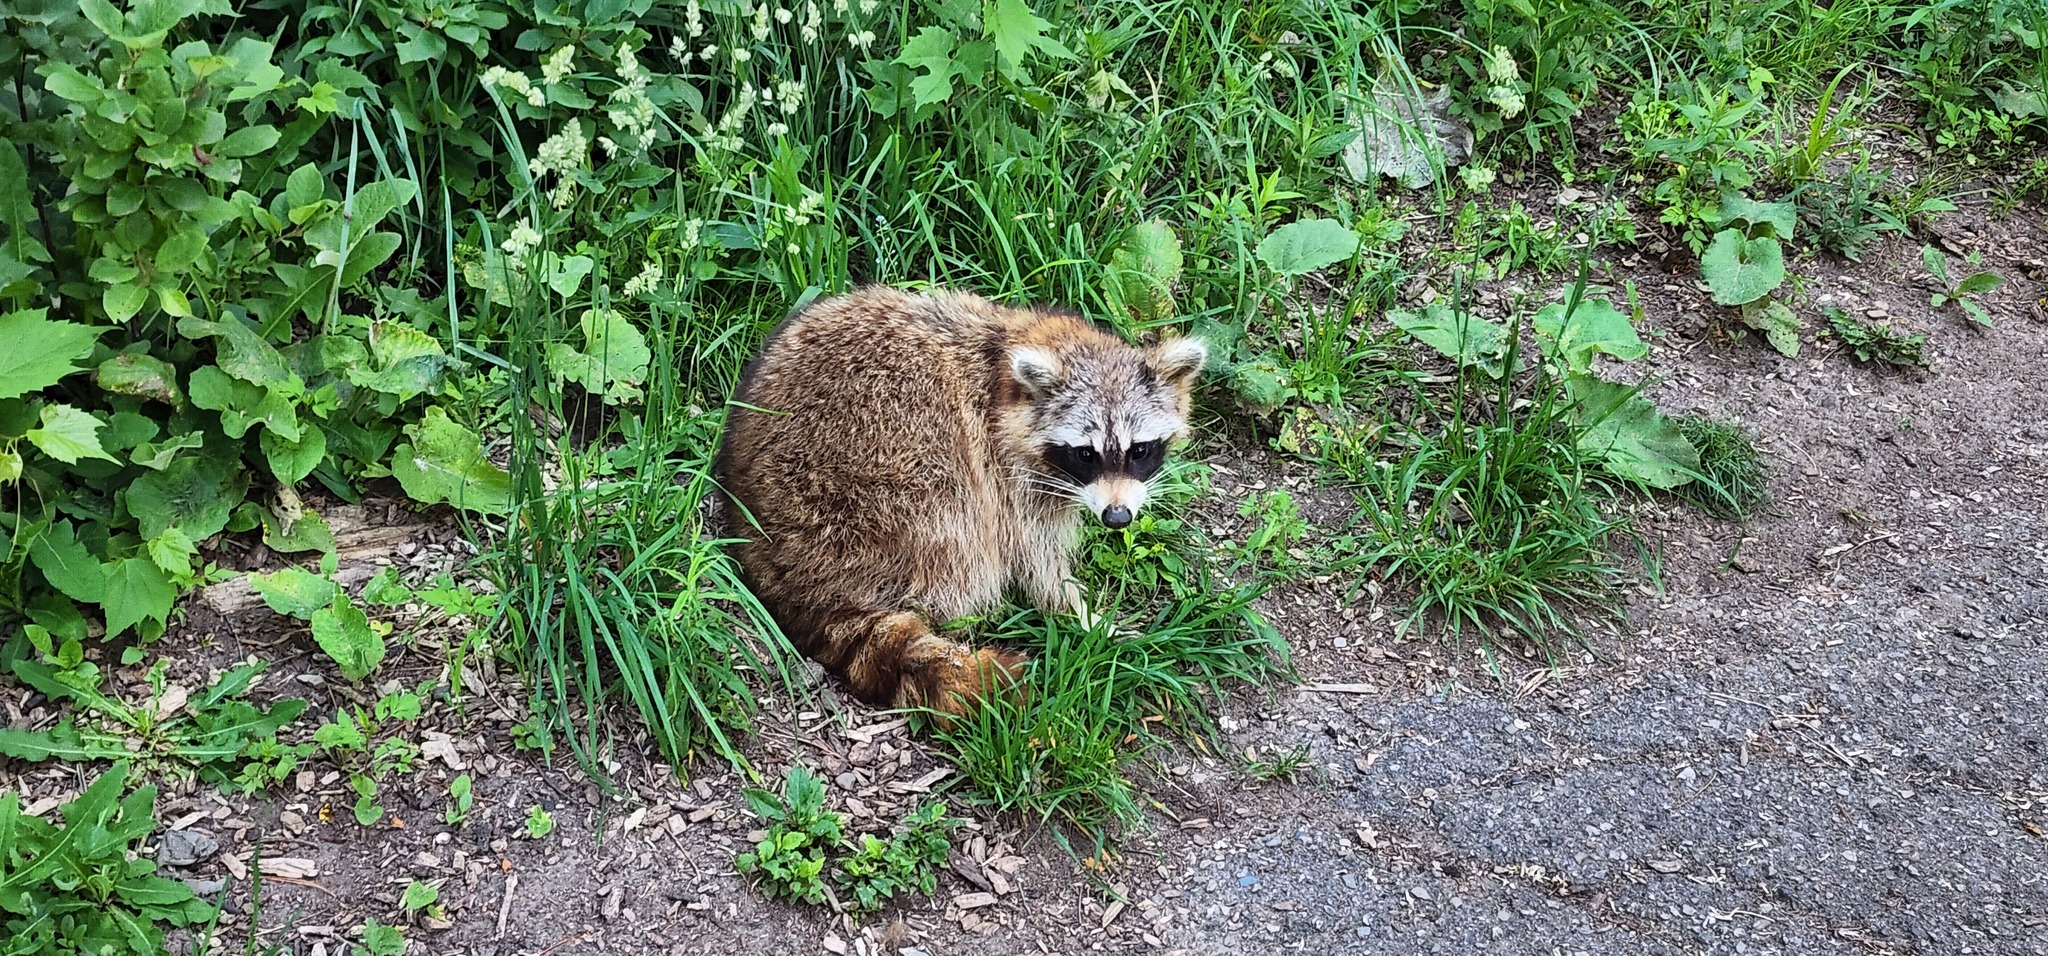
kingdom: Animalia
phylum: Chordata
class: Mammalia
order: Carnivora
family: Procyonidae
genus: Procyon
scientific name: Procyon lotor
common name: Raccoon
